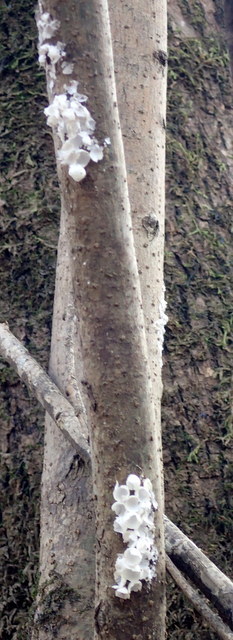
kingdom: Animalia
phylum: Mollusca
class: Gastropoda
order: Architaenioglossa
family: Ampullariidae
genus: Pomacea
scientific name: Pomacea paludosa
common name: Florida applesnail
